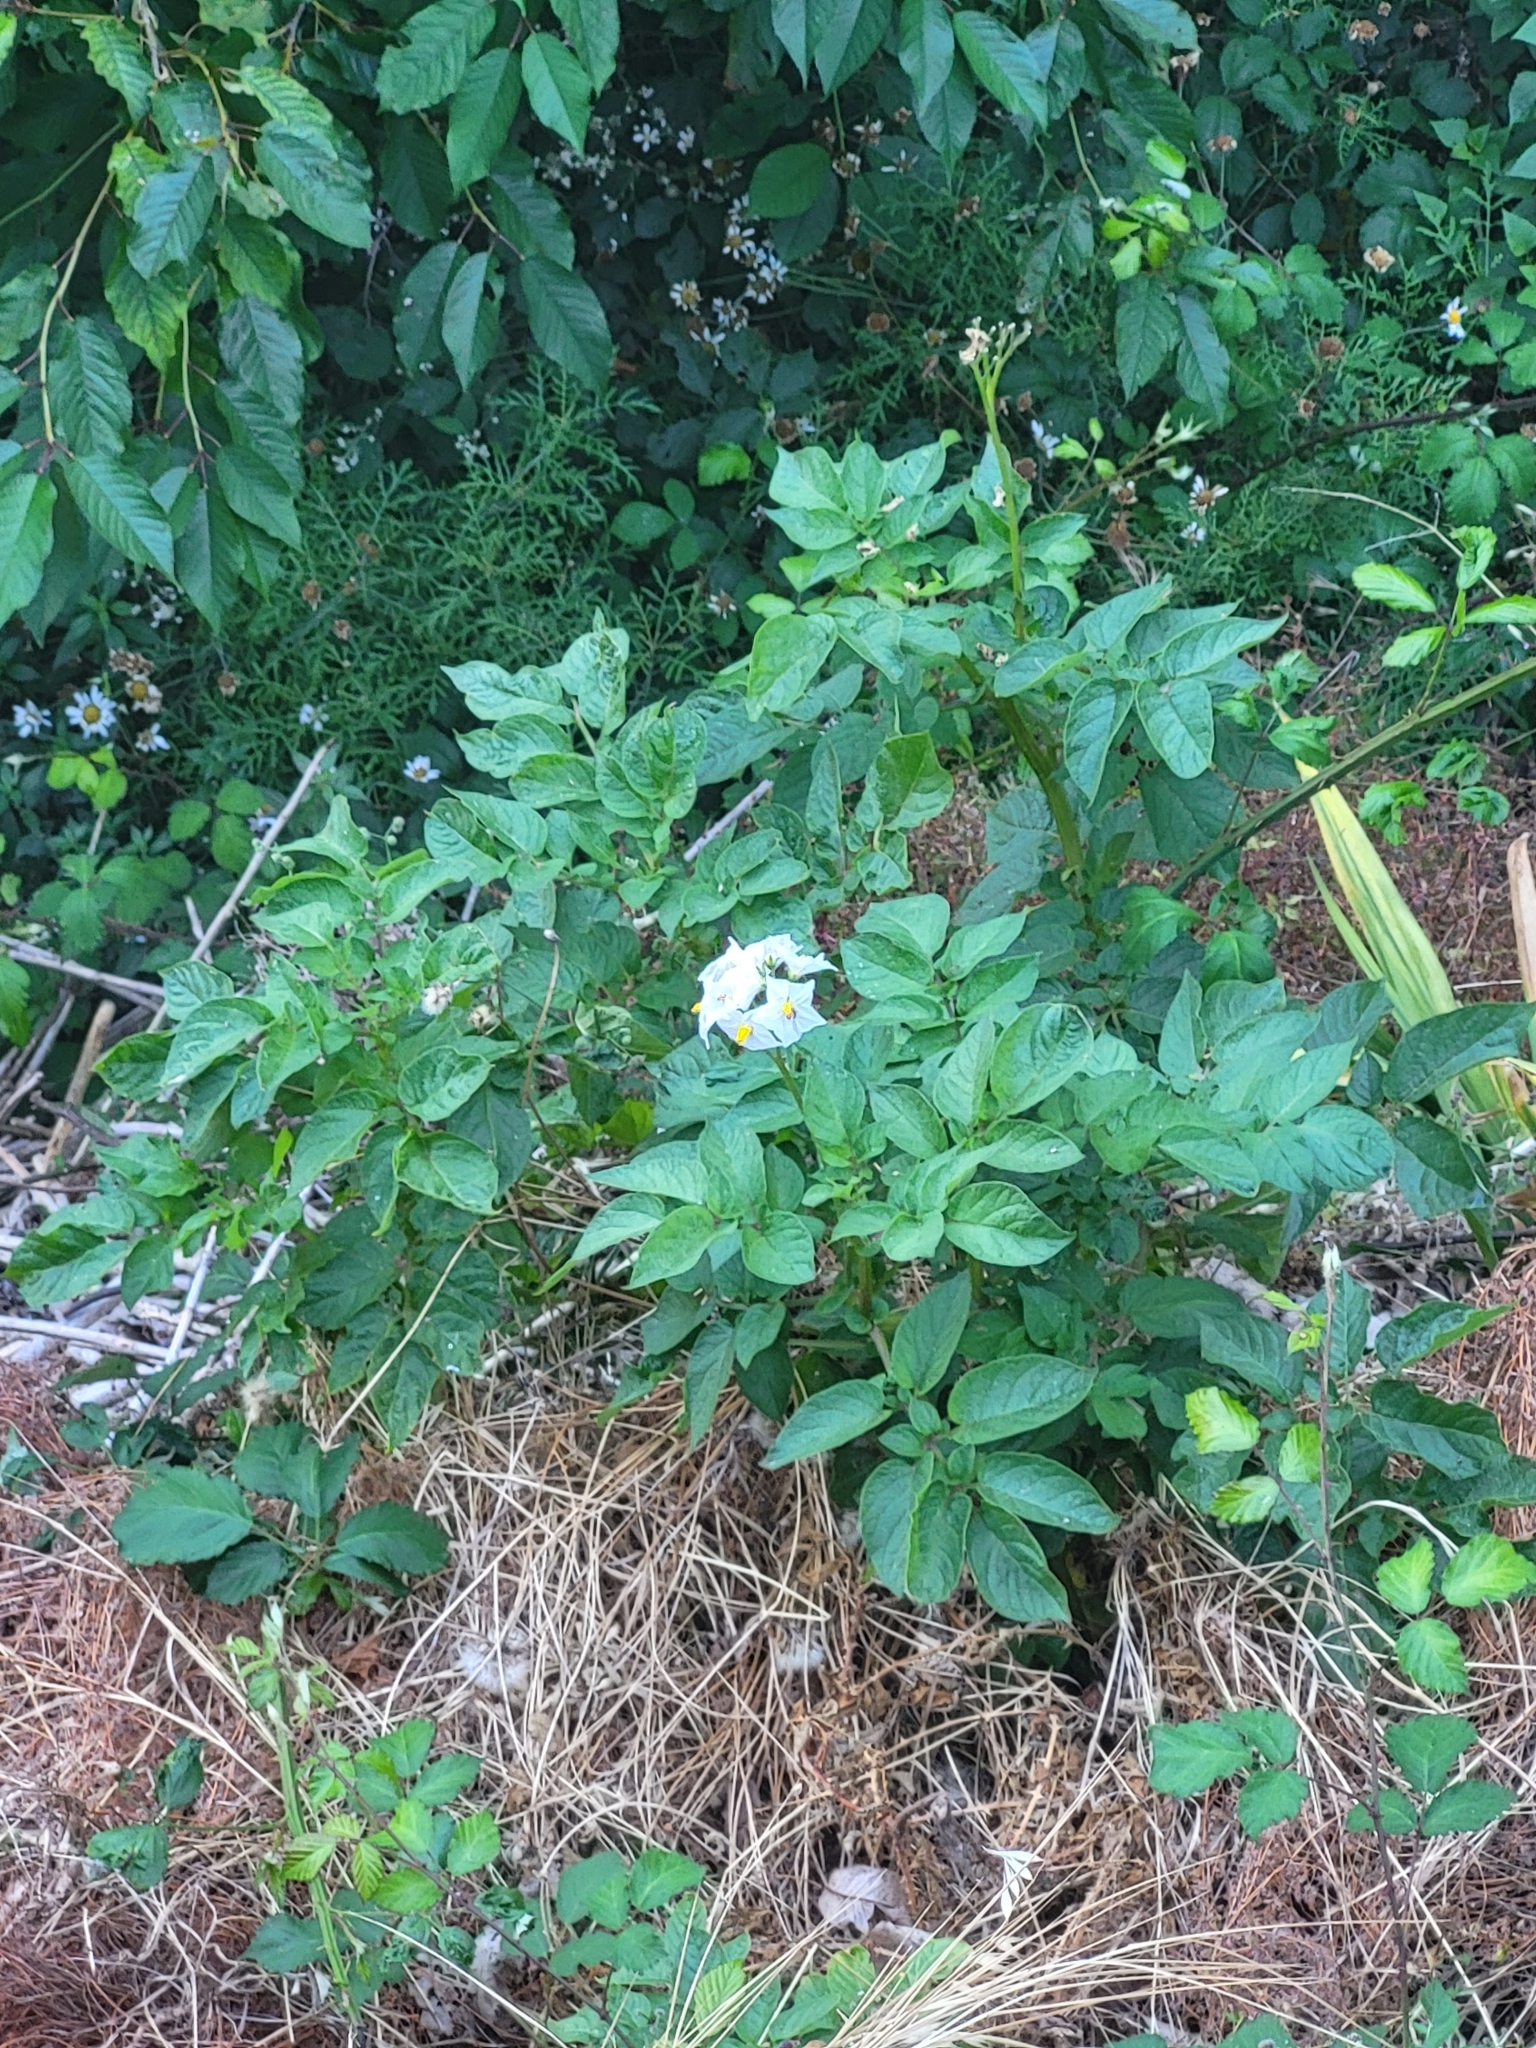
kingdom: Plantae
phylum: Tracheophyta
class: Magnoliopsida
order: Solanales
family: Solanaceae
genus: Solanum
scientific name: Solanum tuberosum
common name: Potato
